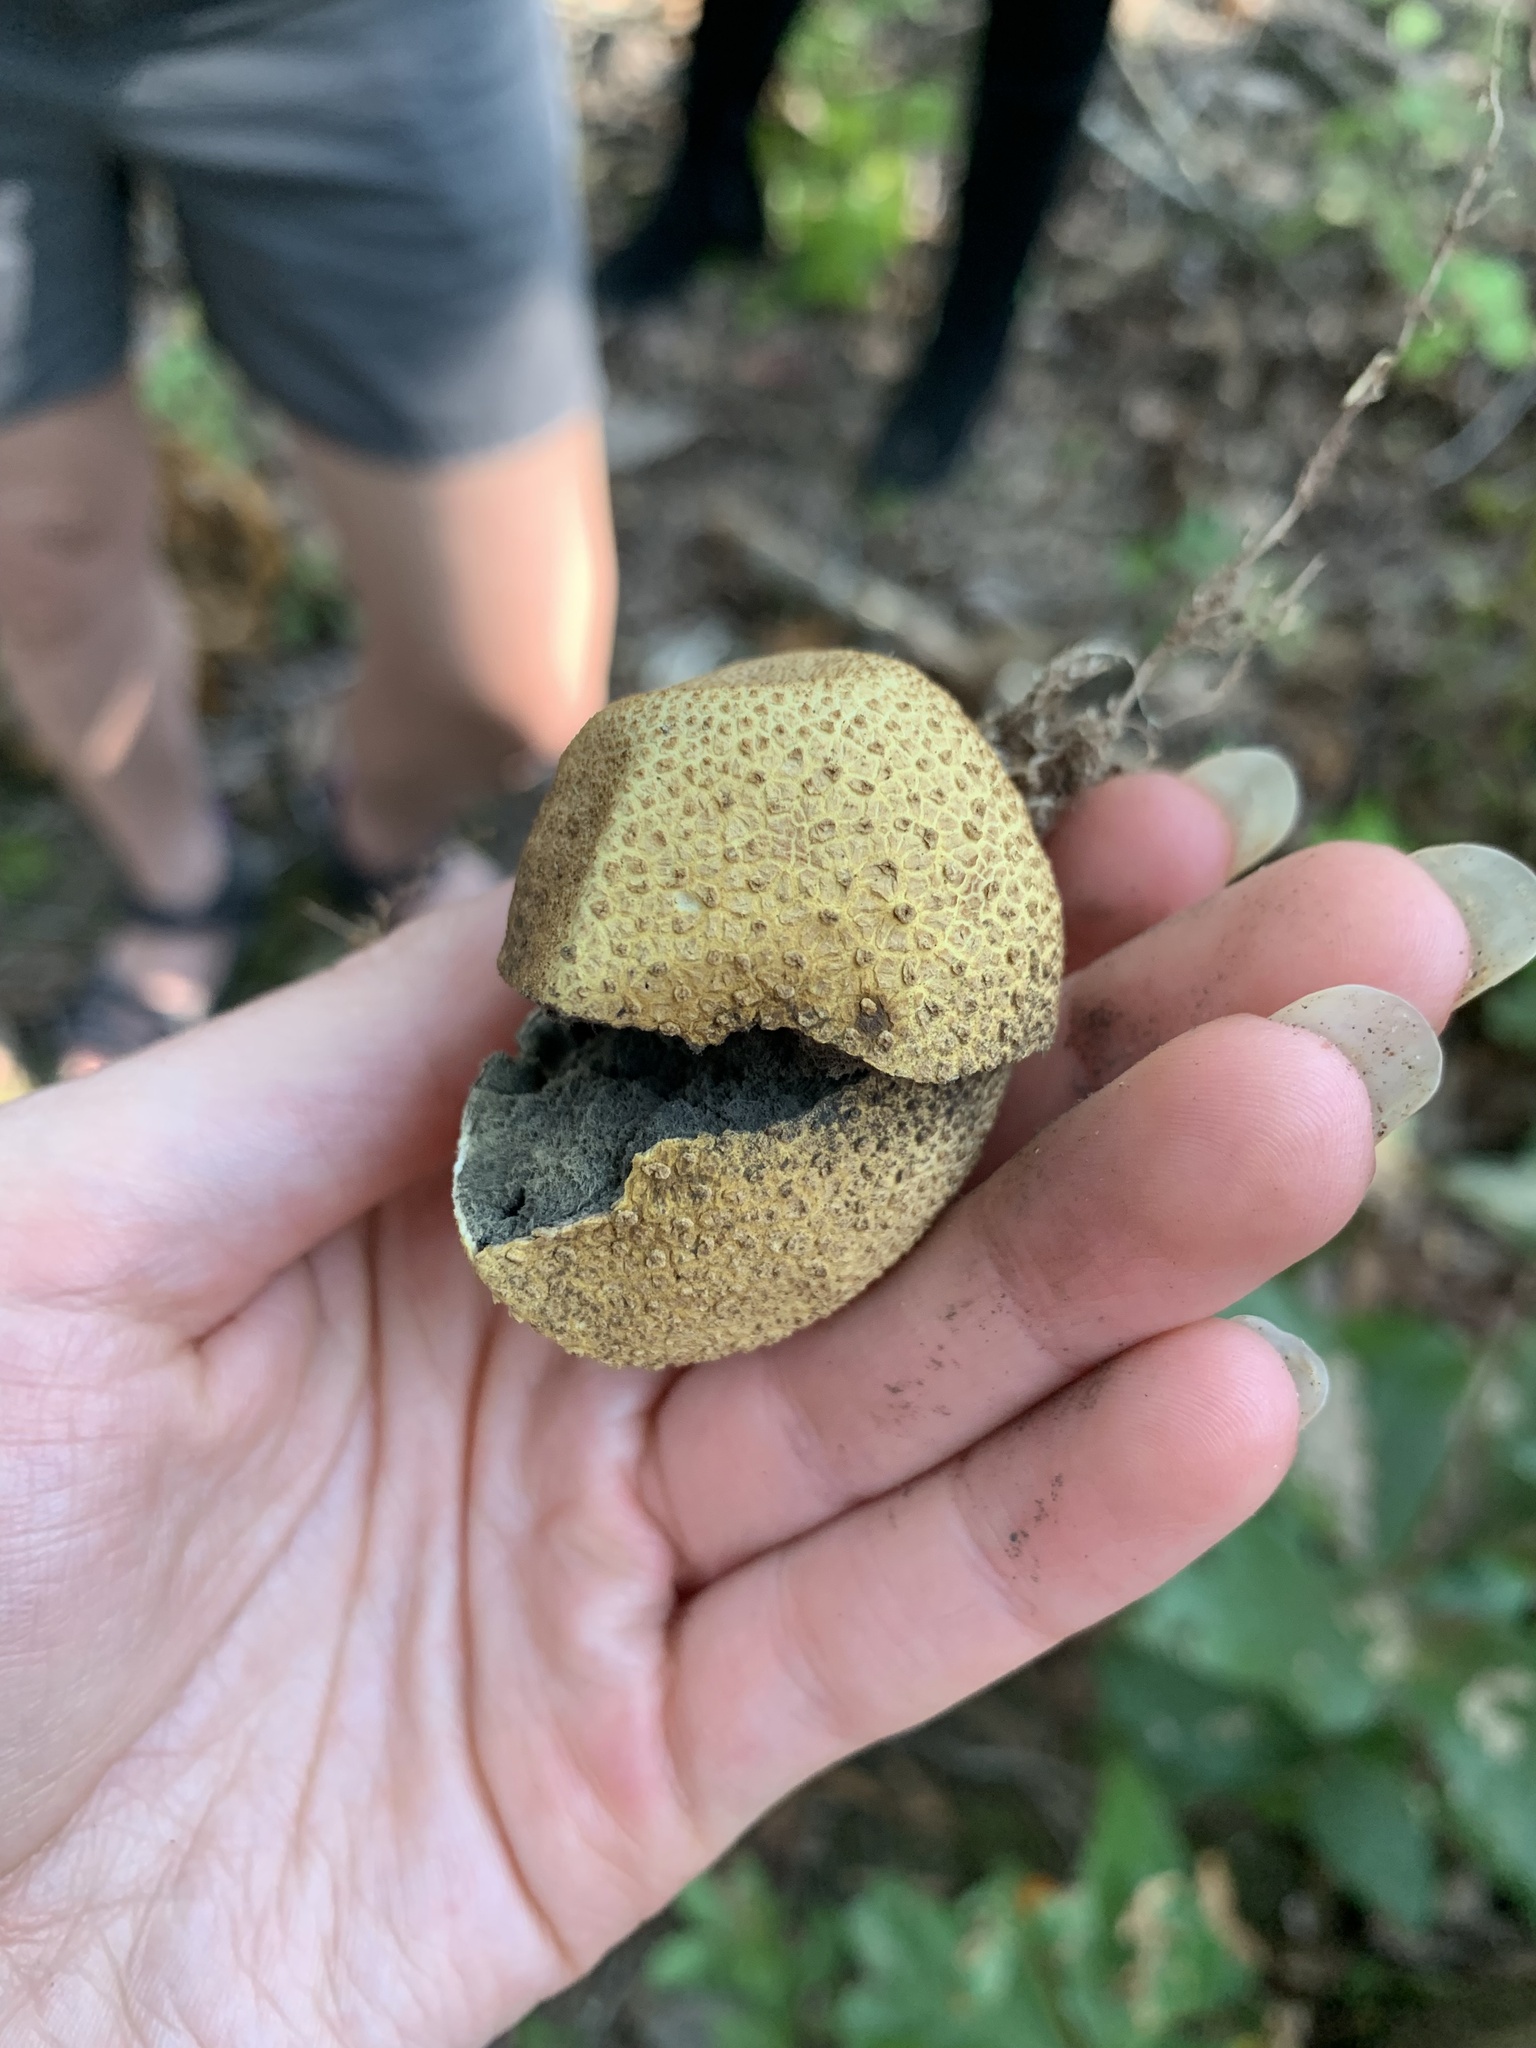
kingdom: Fungi
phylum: Basidiomycota
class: Agaricomycetes
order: Boletales
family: Sclerodermataceae
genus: Scleroderma
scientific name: Scleroderma citrinum
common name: Common earthball
